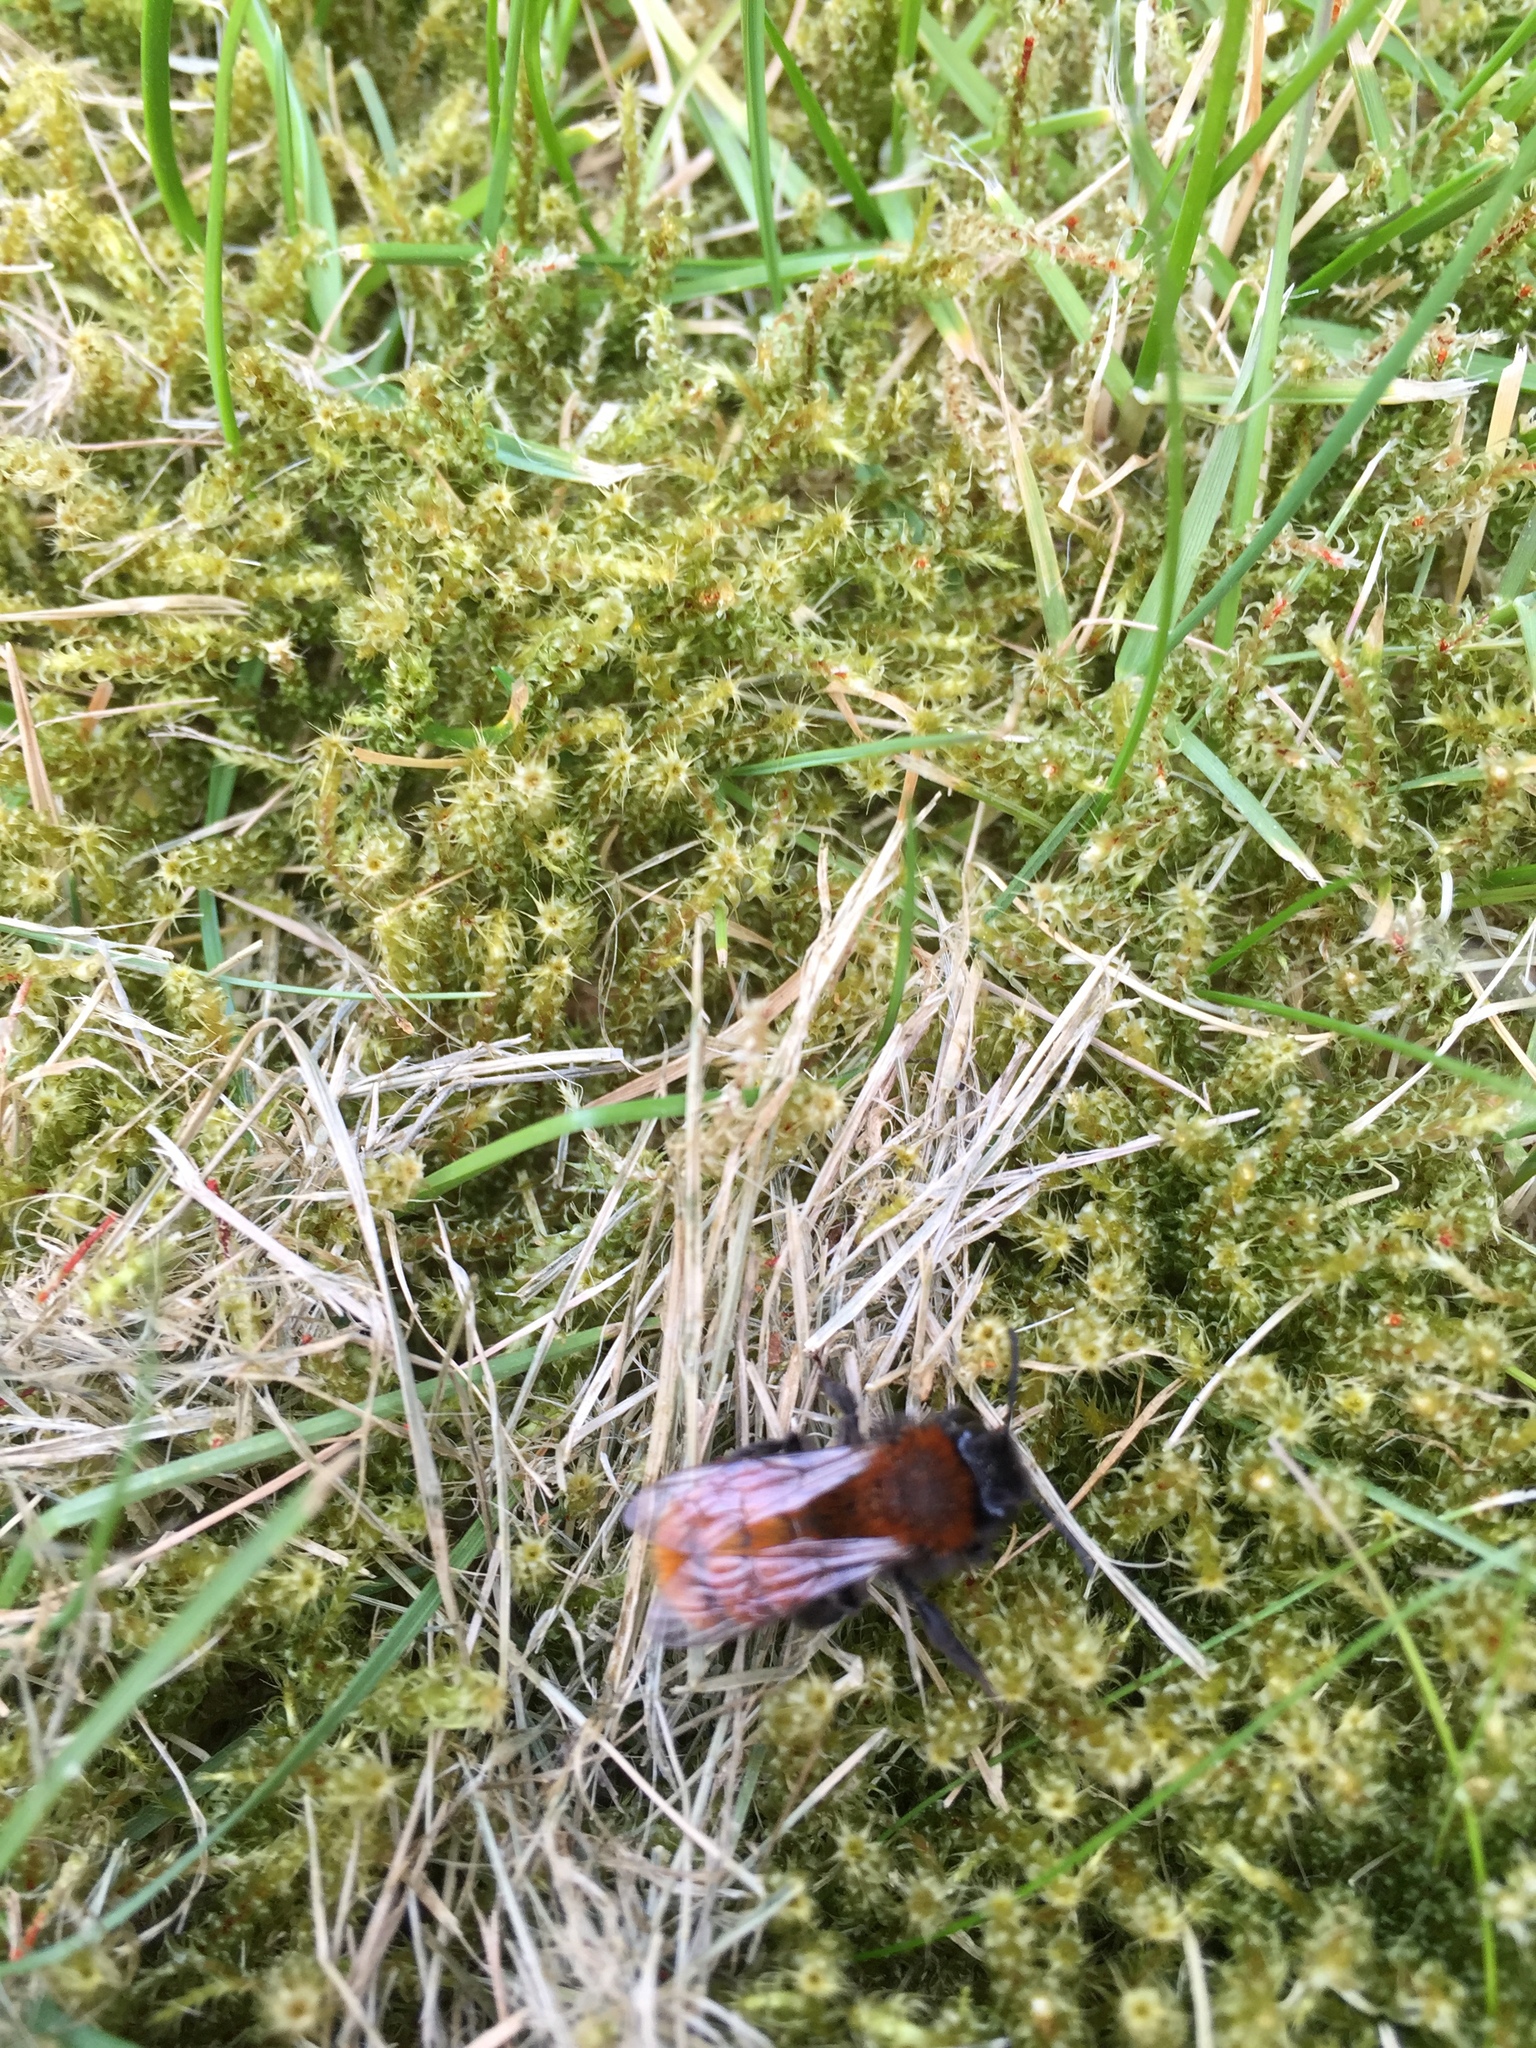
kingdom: Animalia
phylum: Arthropoda
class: Insecta
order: Hymenoptera
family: Andrenidae
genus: Andrena
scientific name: Andrena fulva
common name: Tawny mining bee
